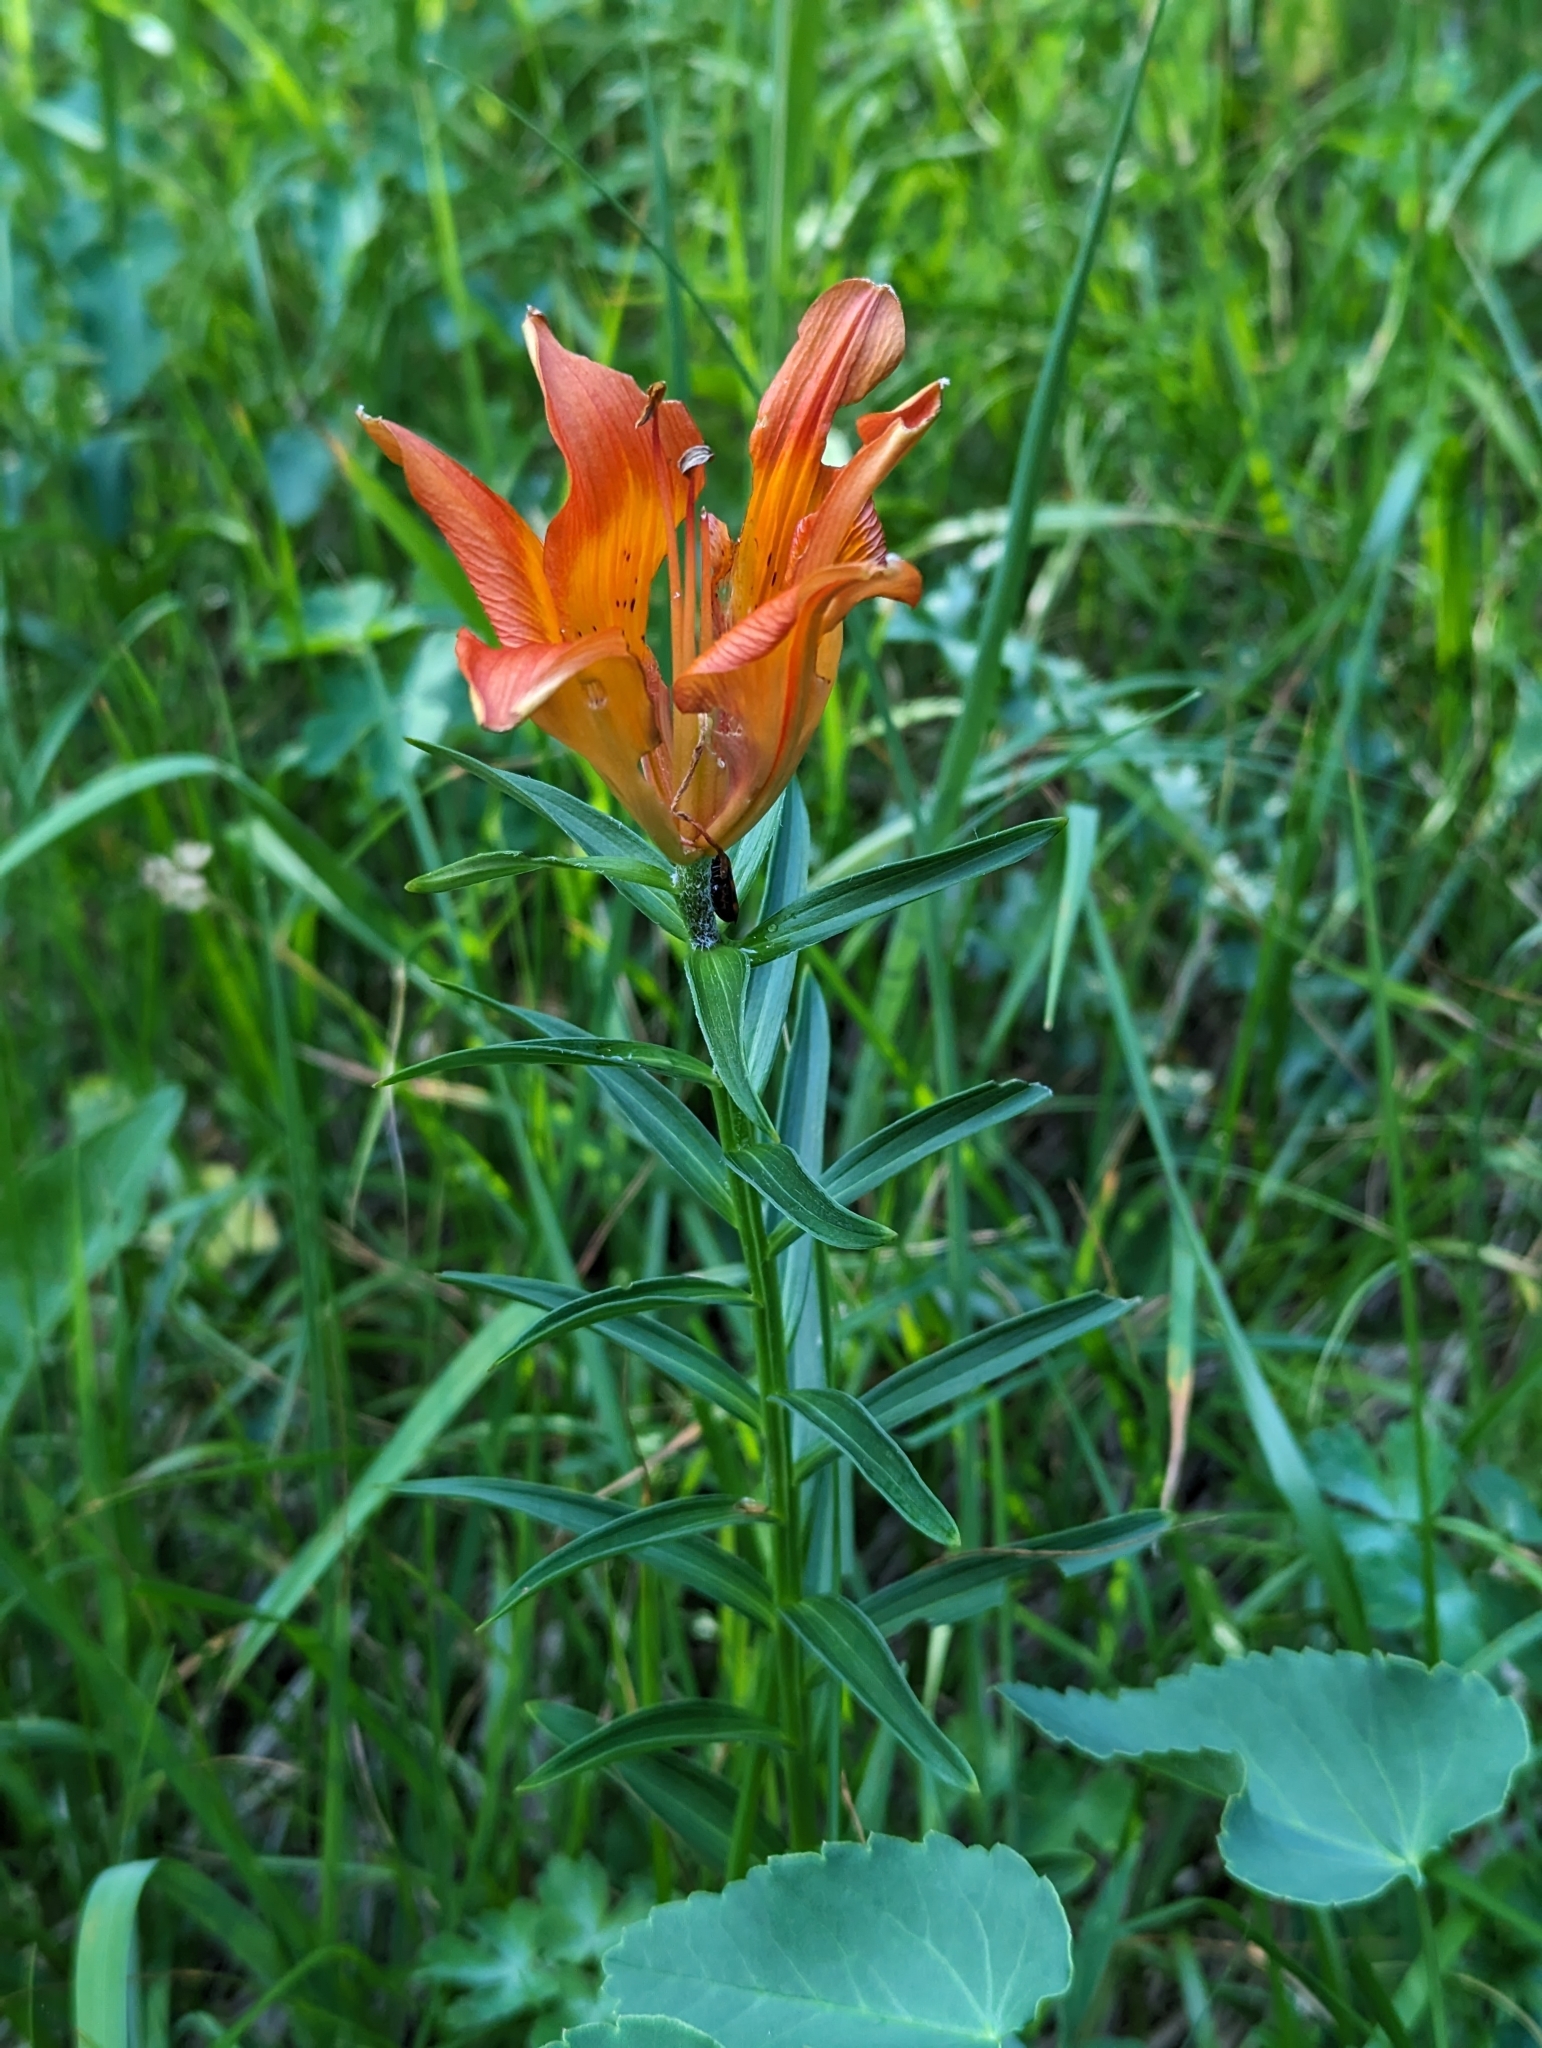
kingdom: Plantae
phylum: Tracheophyta
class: Liliopsida
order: Liliales
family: Liliaceae
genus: Lilium
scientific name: Lilium bulbiferum
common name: Orange lily
